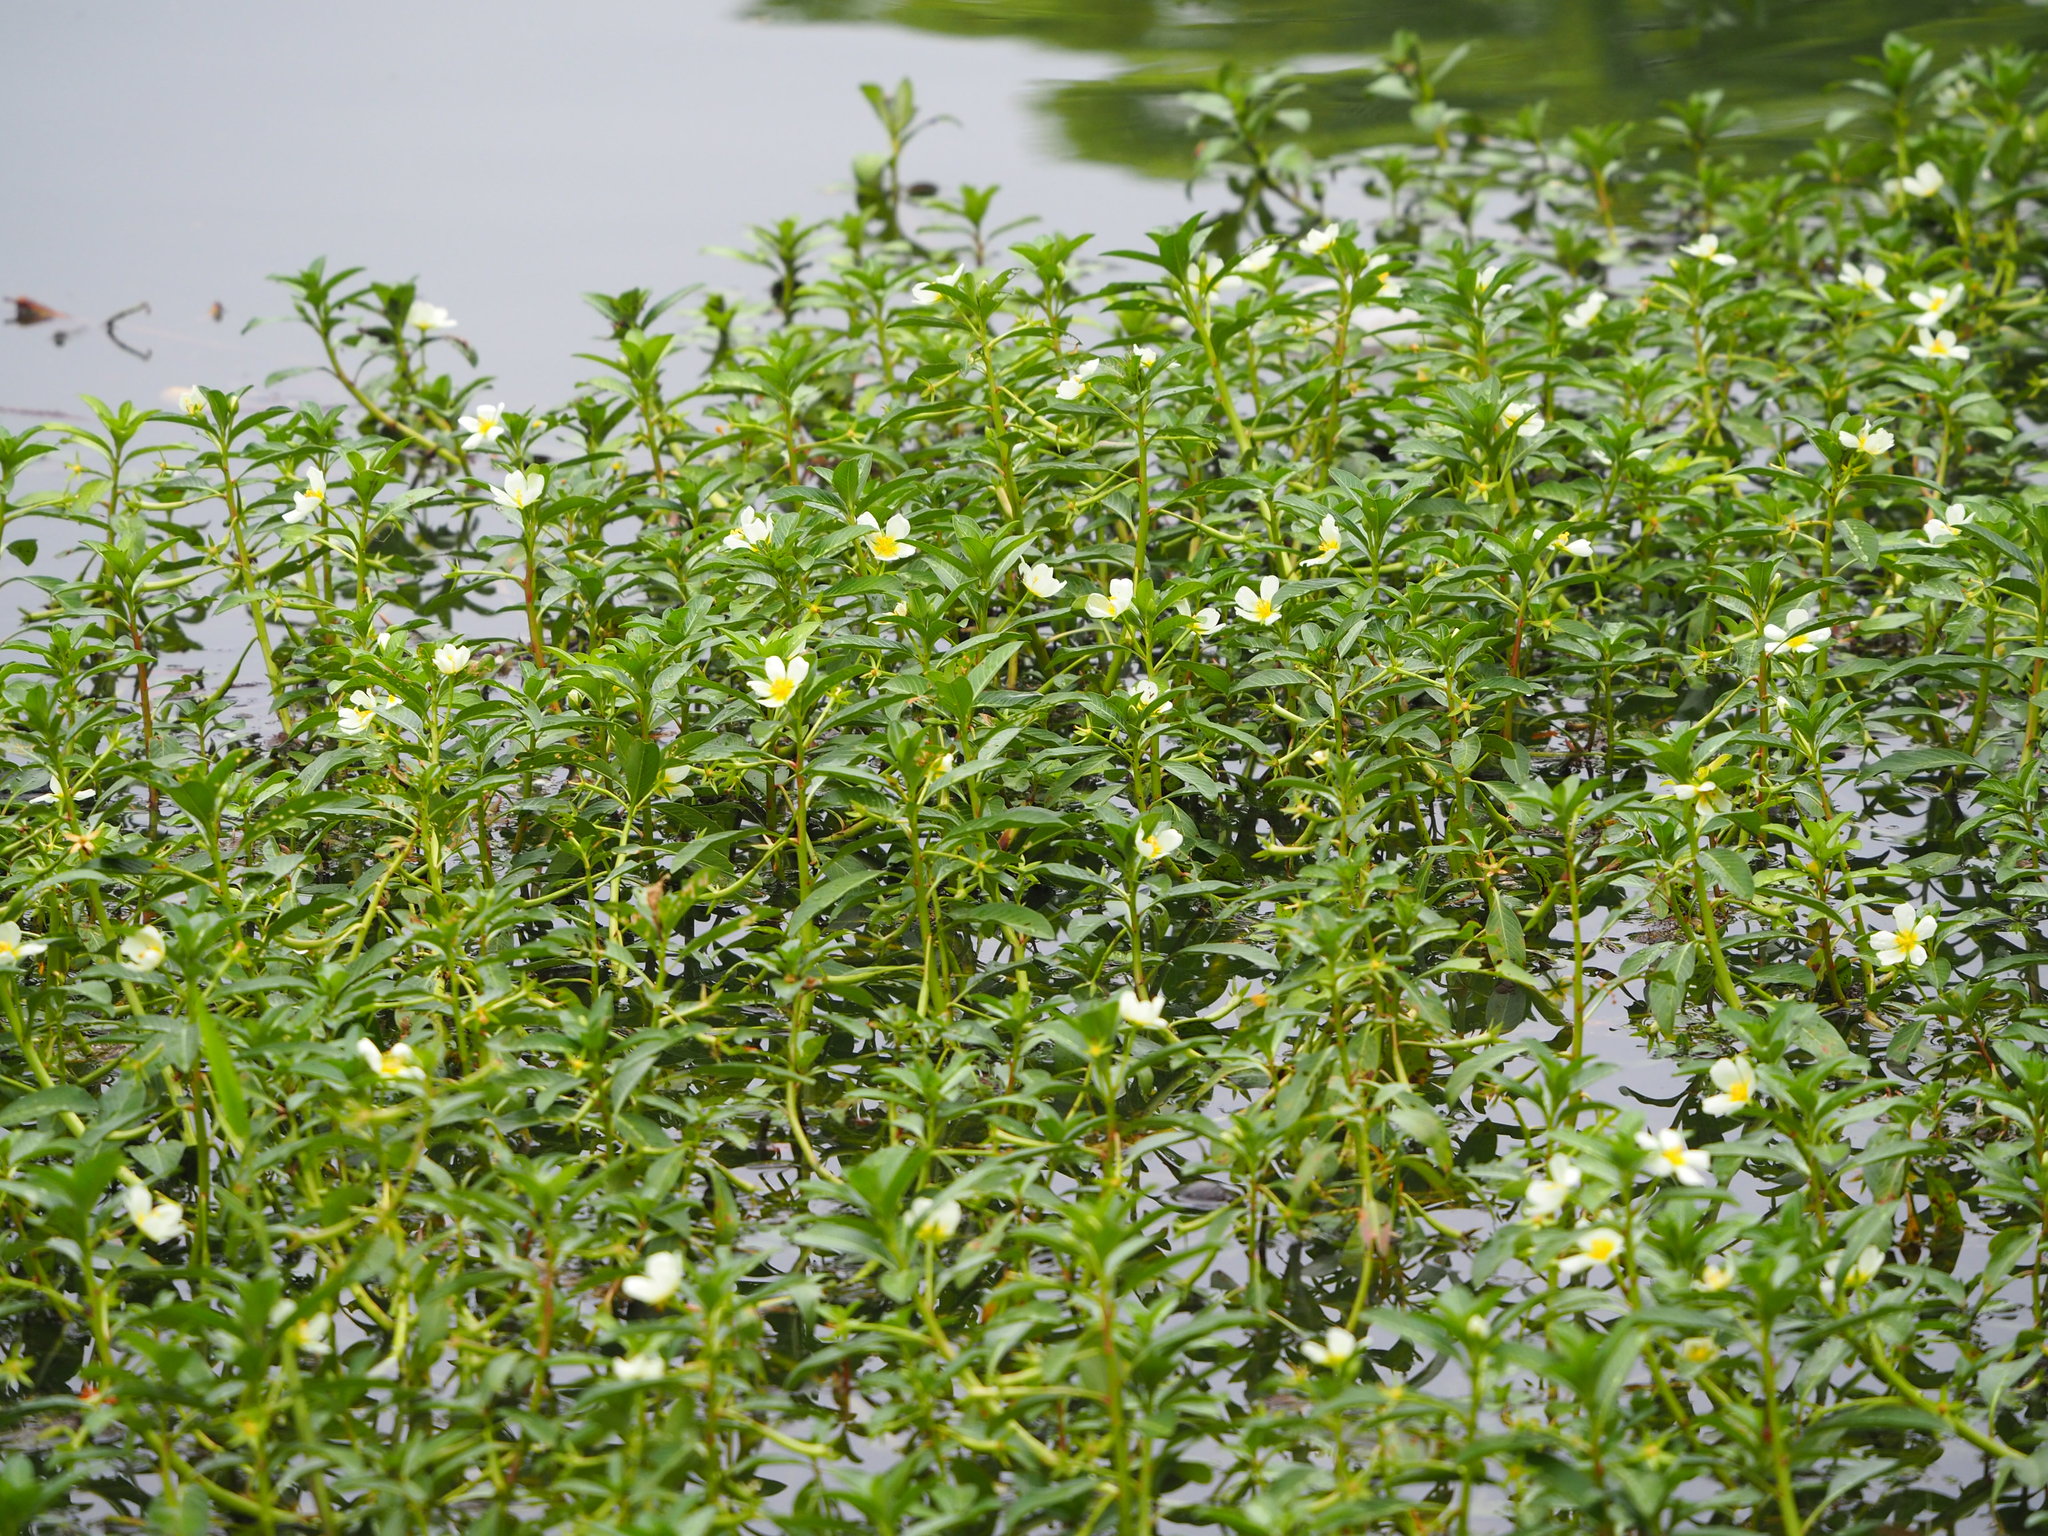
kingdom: Plantae
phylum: Tracheophyta
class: Magnoliopsida
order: Myrtales
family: Onagraceae
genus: Ludwigia
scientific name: Ludwigia adscendens
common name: Creeping water primrose
